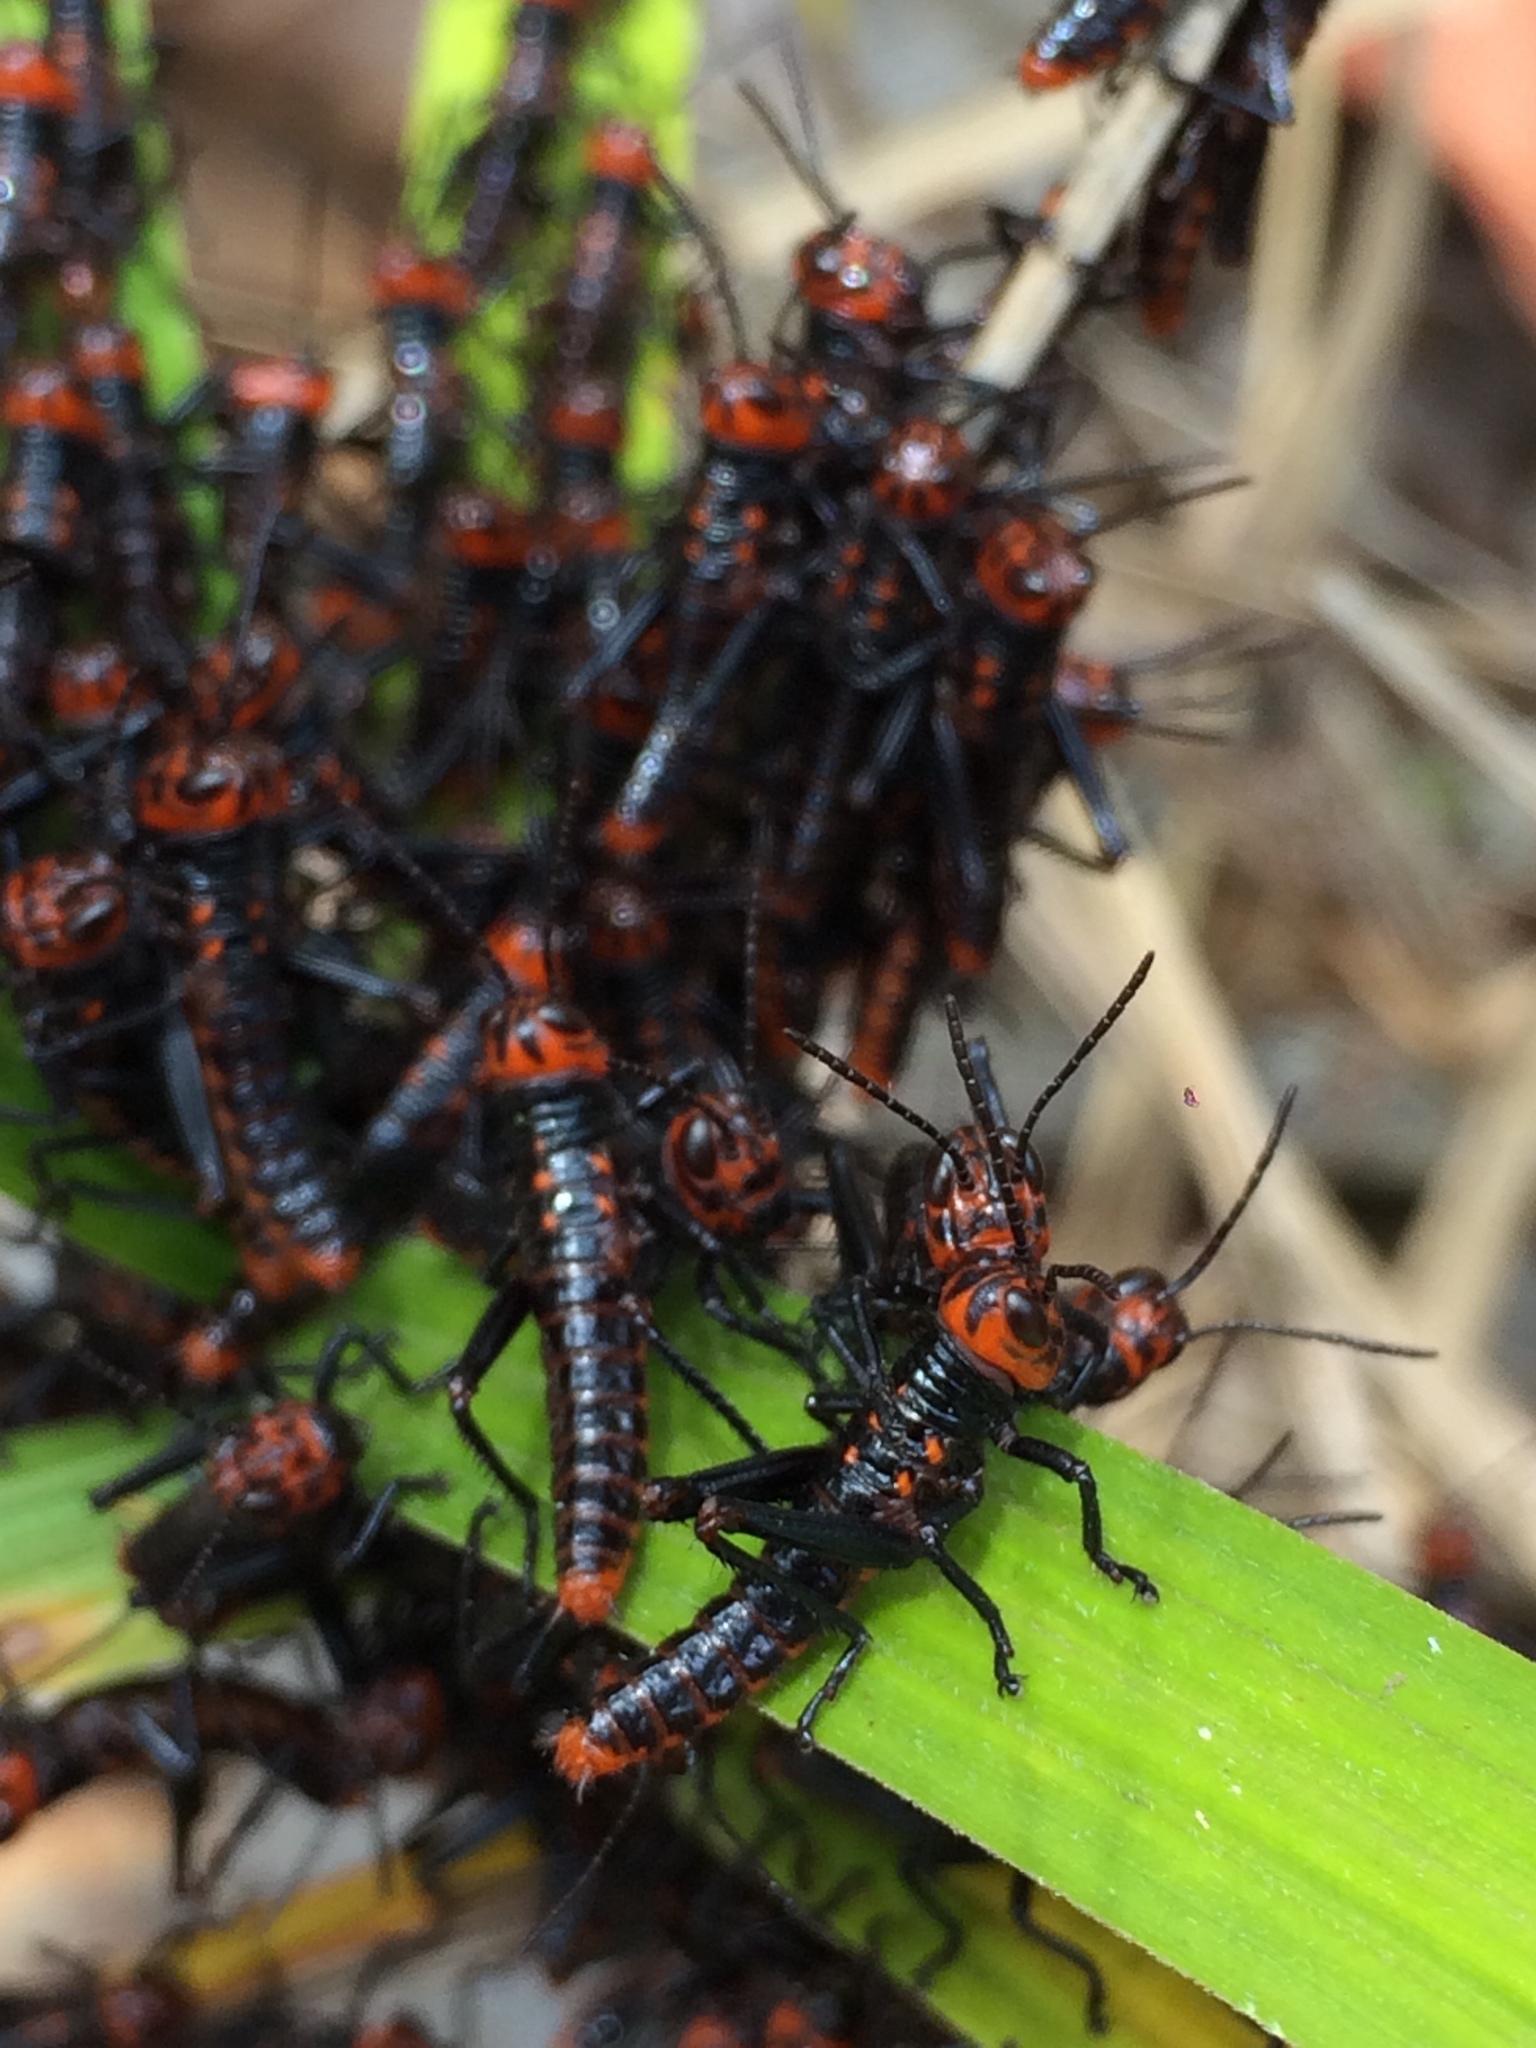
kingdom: Animalia
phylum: Arthropoda
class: Insecta
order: Orthoptera
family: Romaleidae
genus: Tropidacris
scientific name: Tropidacris collaris
